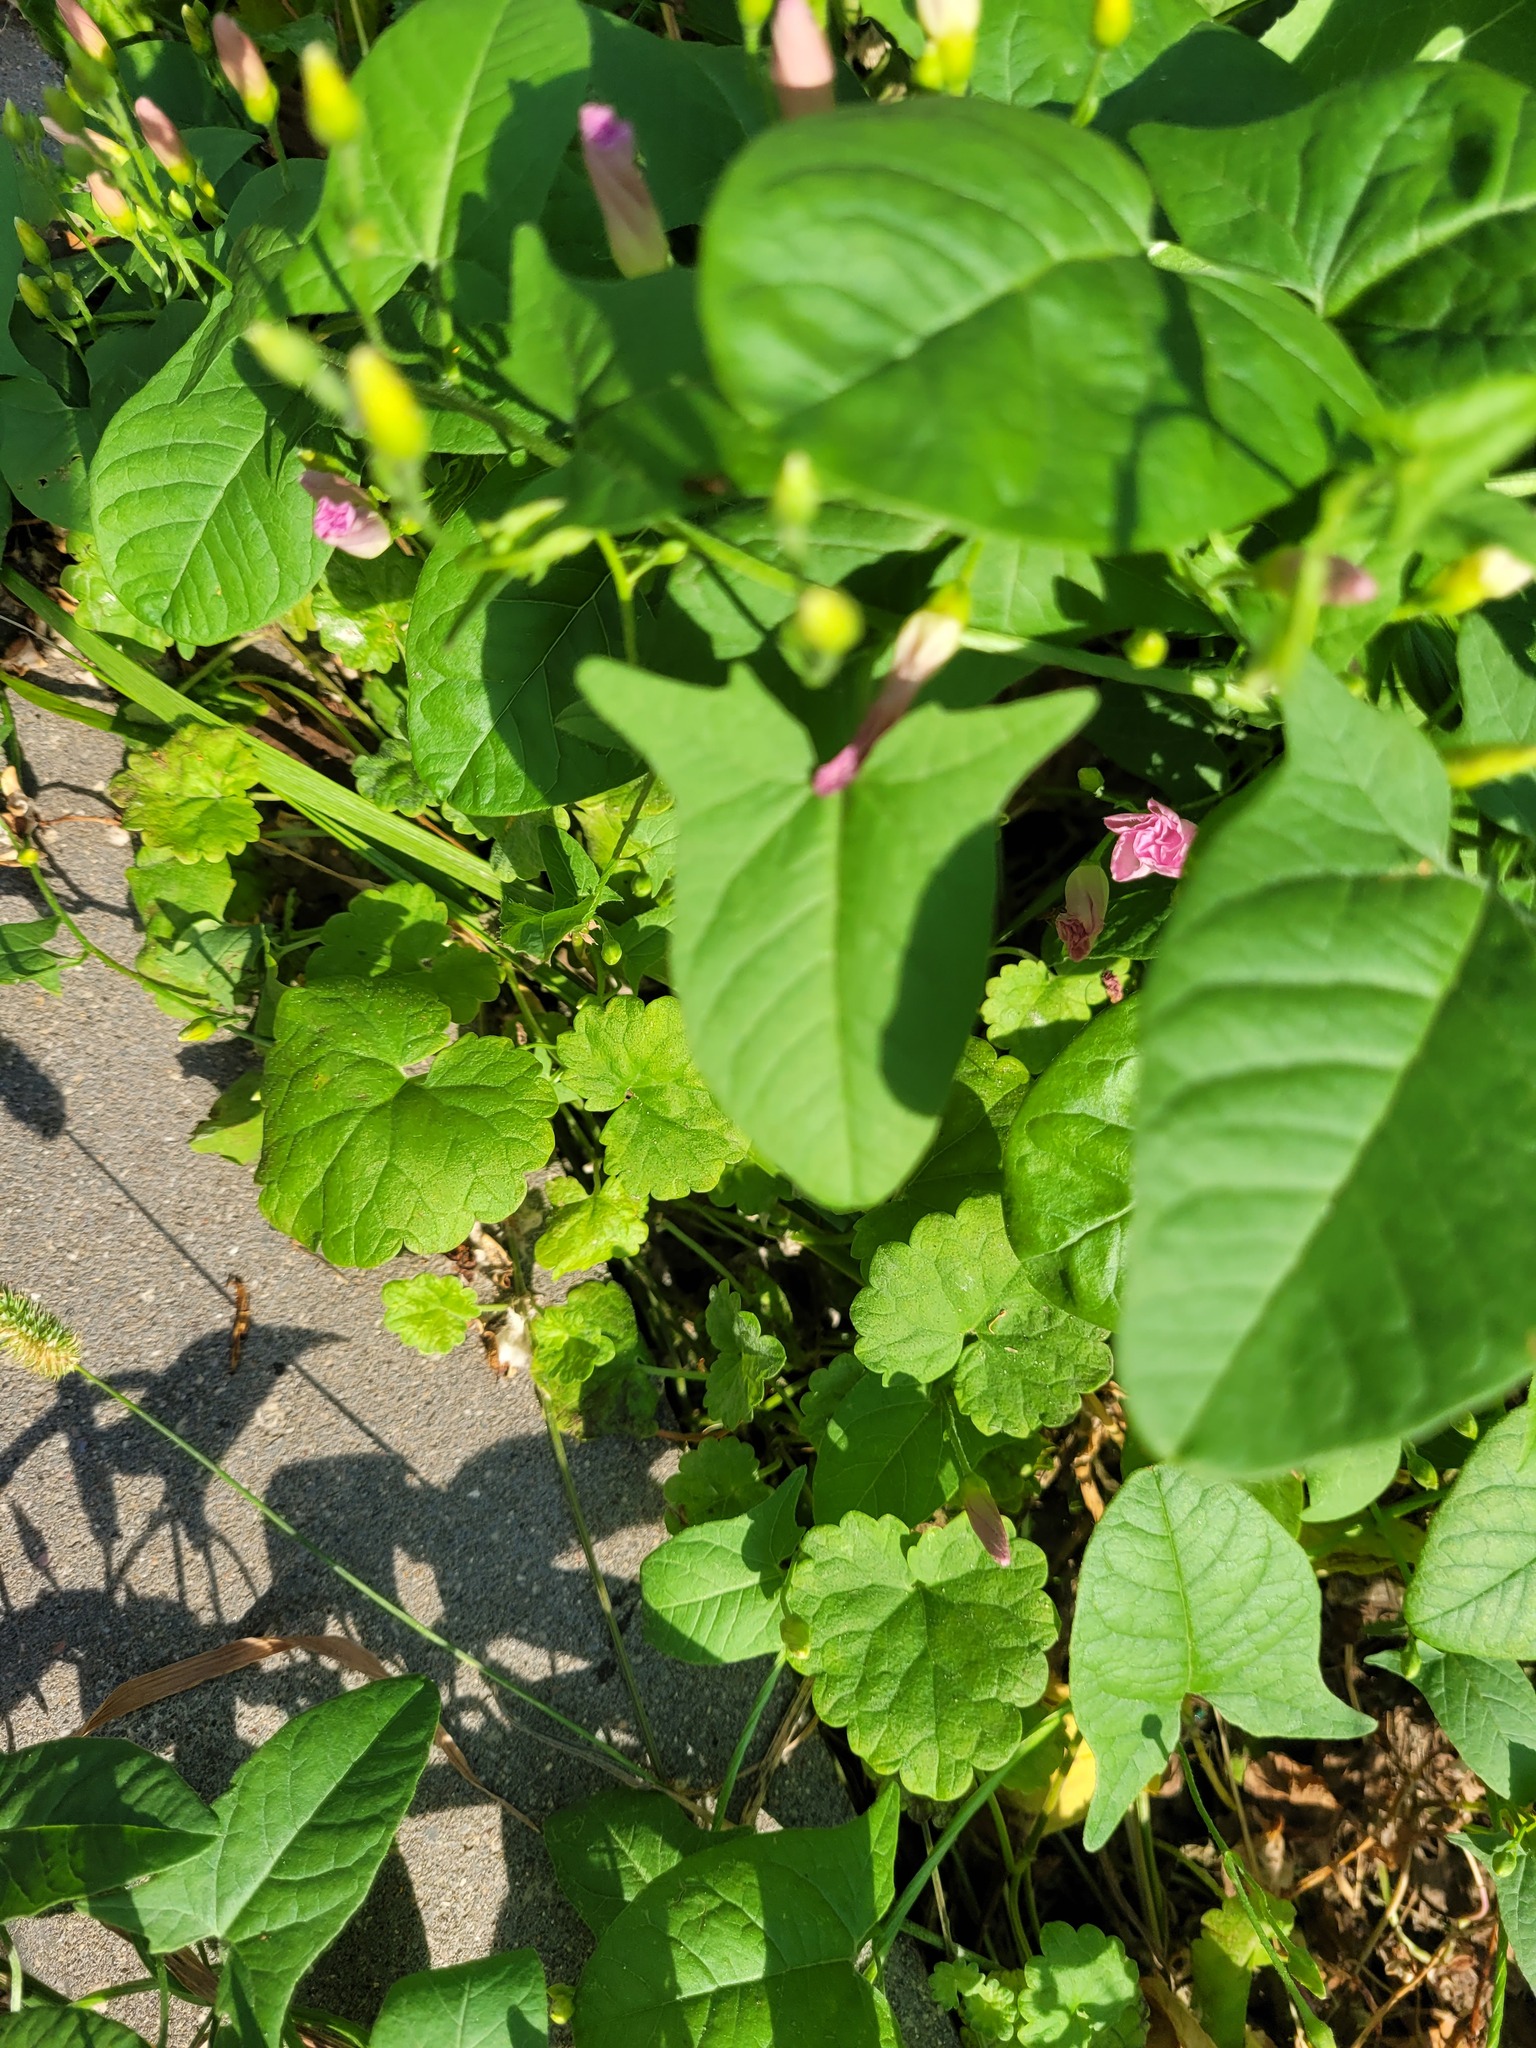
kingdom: Plantae
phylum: Tracheophyta
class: Magnoliopsida
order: Lamiales
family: Lamiaceae
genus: Glechoma
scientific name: Glechoma hederacea
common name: Ground ivy
